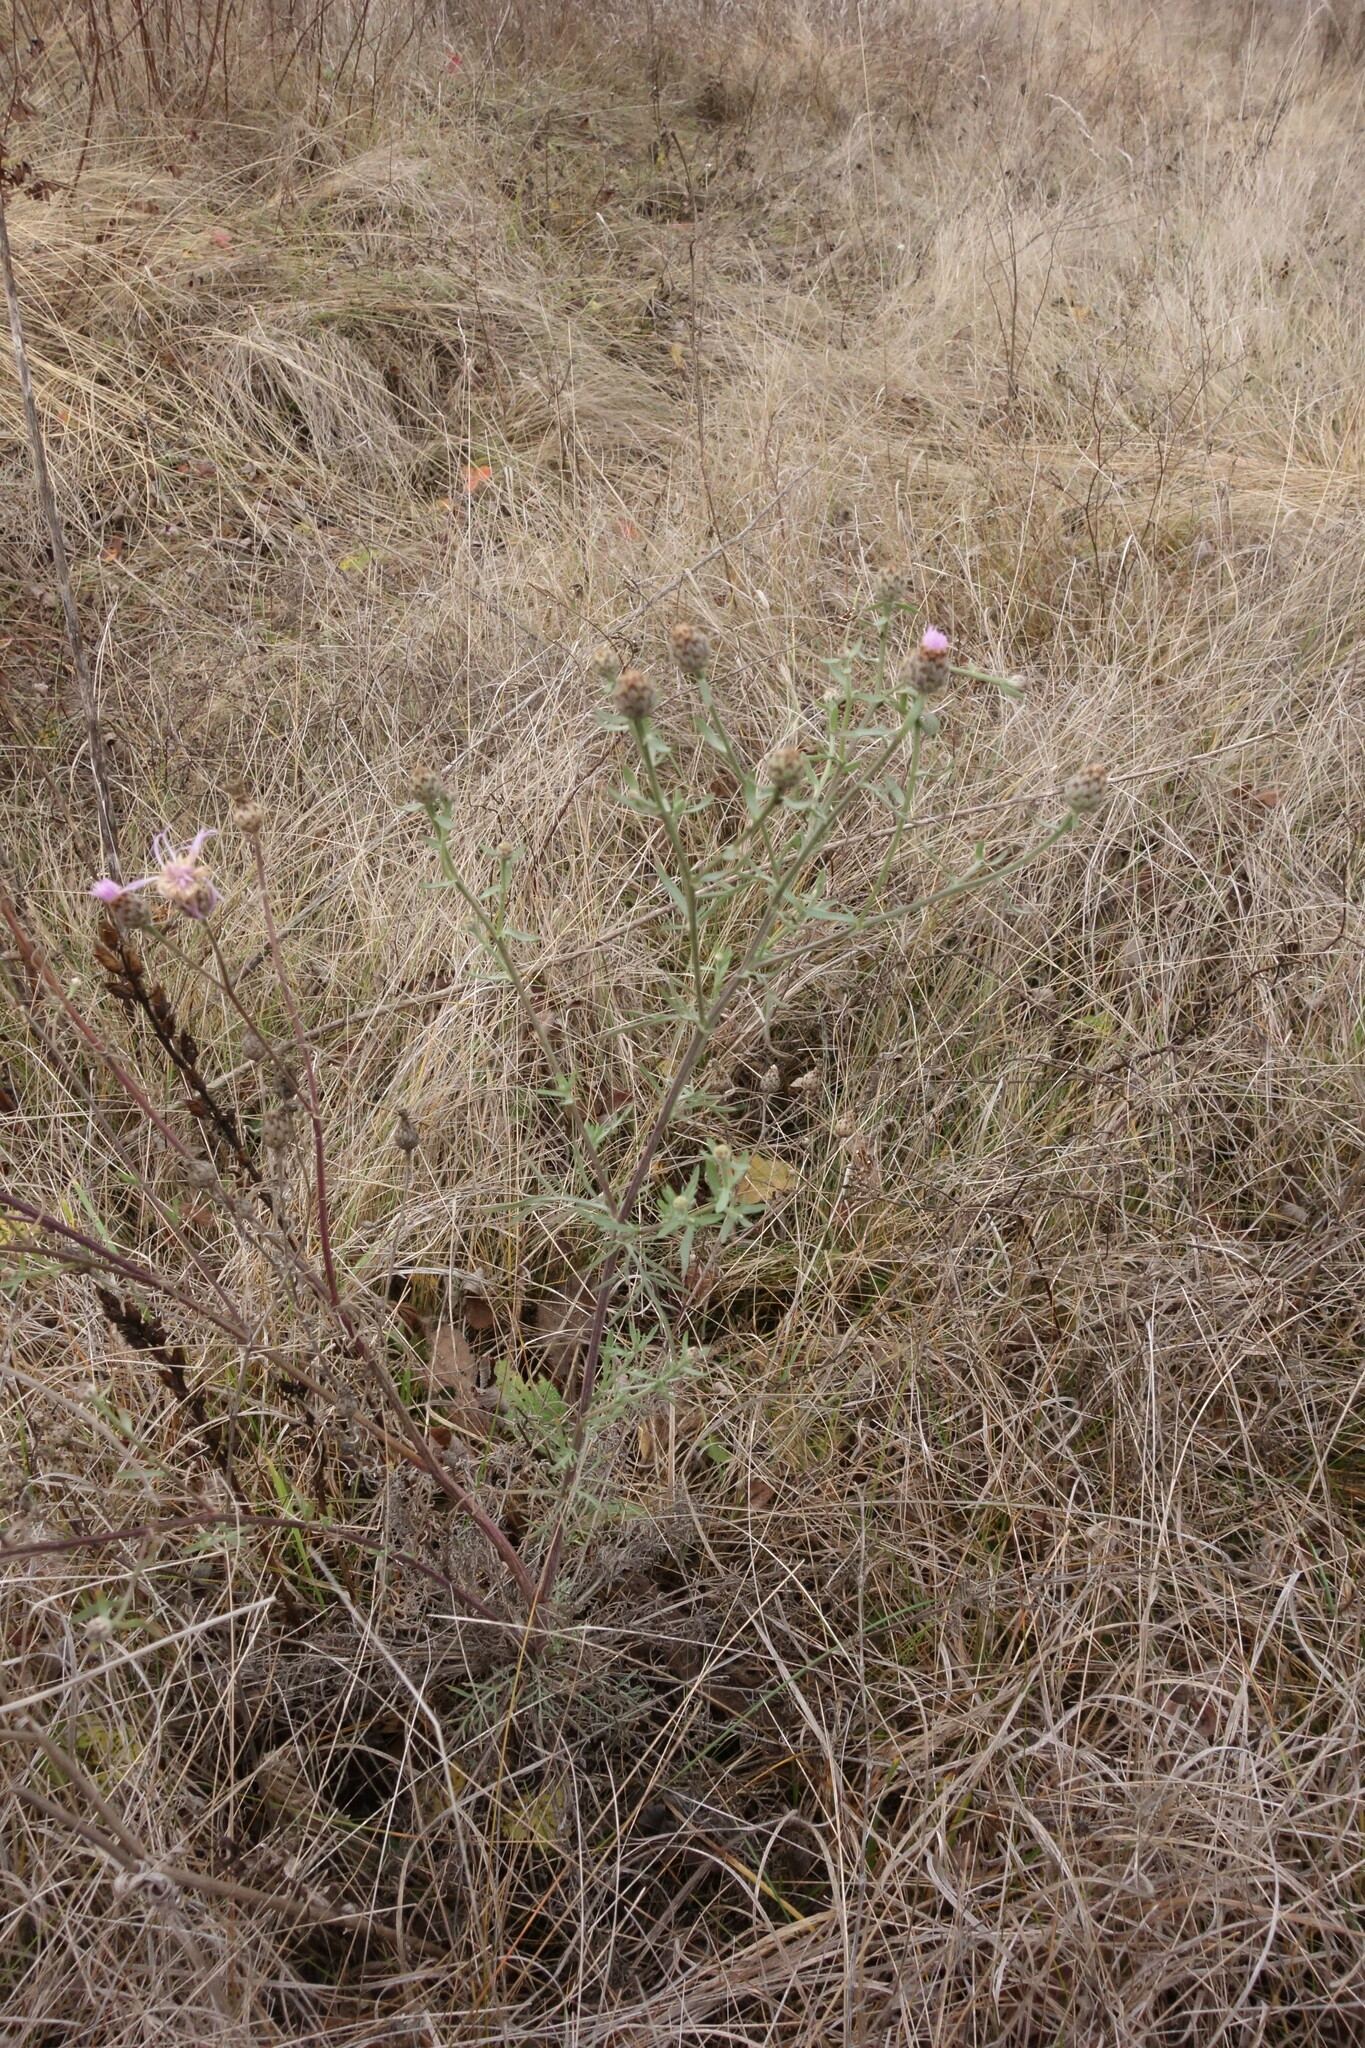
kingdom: Plantae
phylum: Tracheophyta
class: Magnoliopsida
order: Asterales
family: Asteraceae
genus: Centaurea
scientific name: Centaurea stoebe
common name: Spotted knapweed
